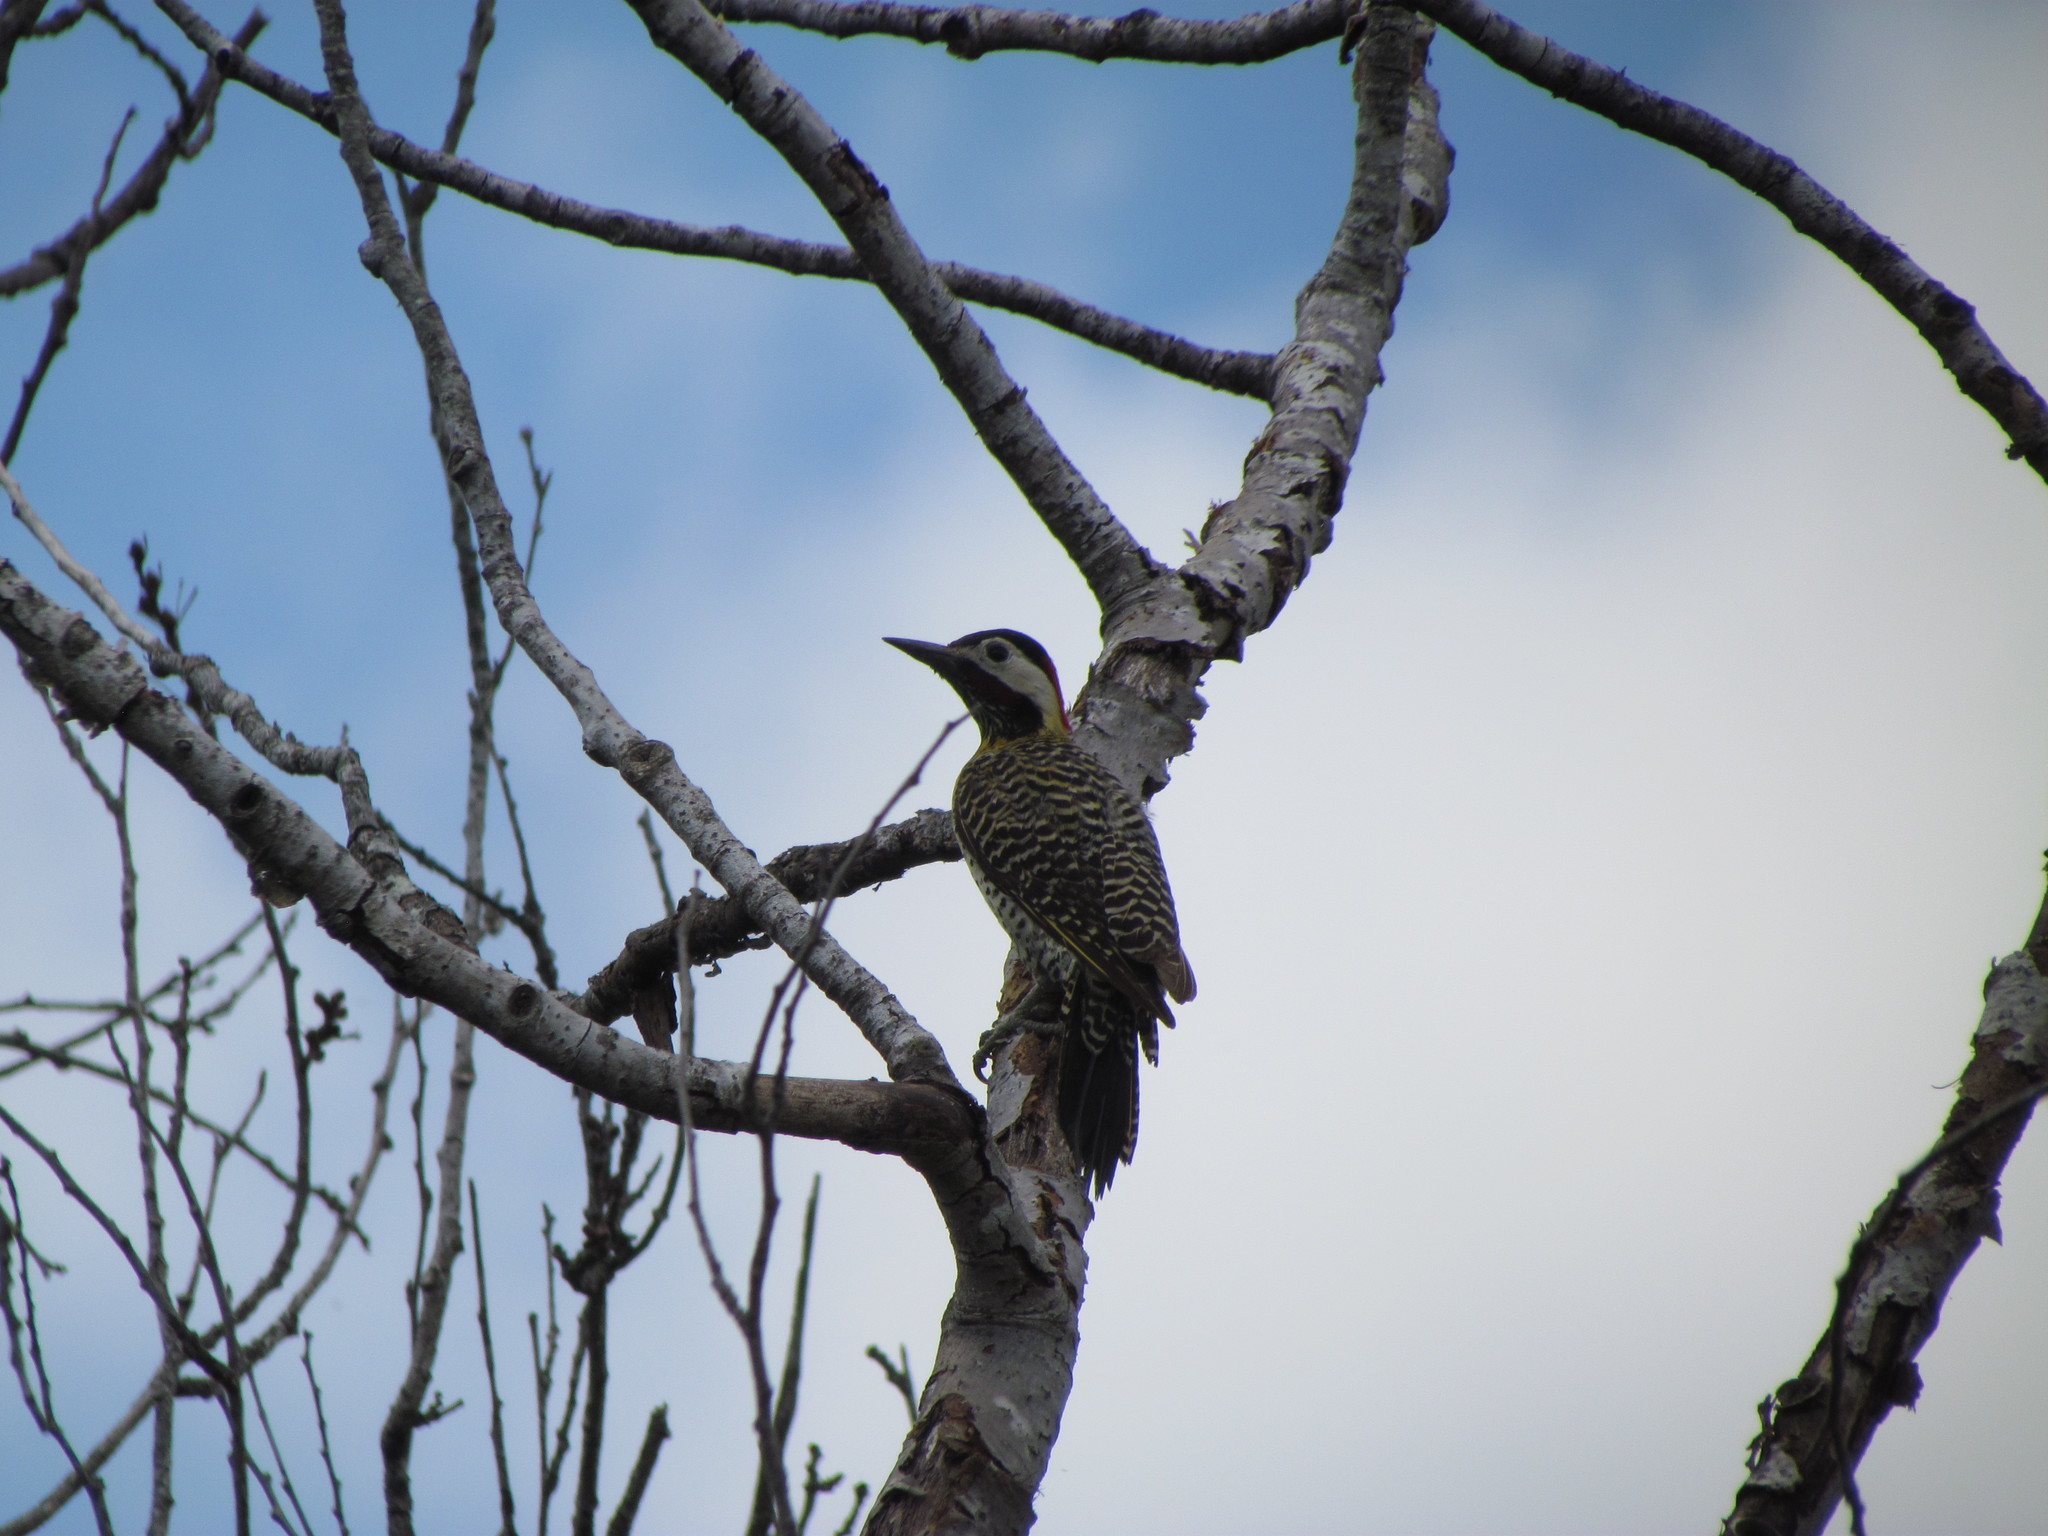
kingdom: Animalia
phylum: Chordata
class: Aves
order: Piciformes
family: Picidae
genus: Colaptes
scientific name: Colaptes melanochloros
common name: Green-barred woodpecker
